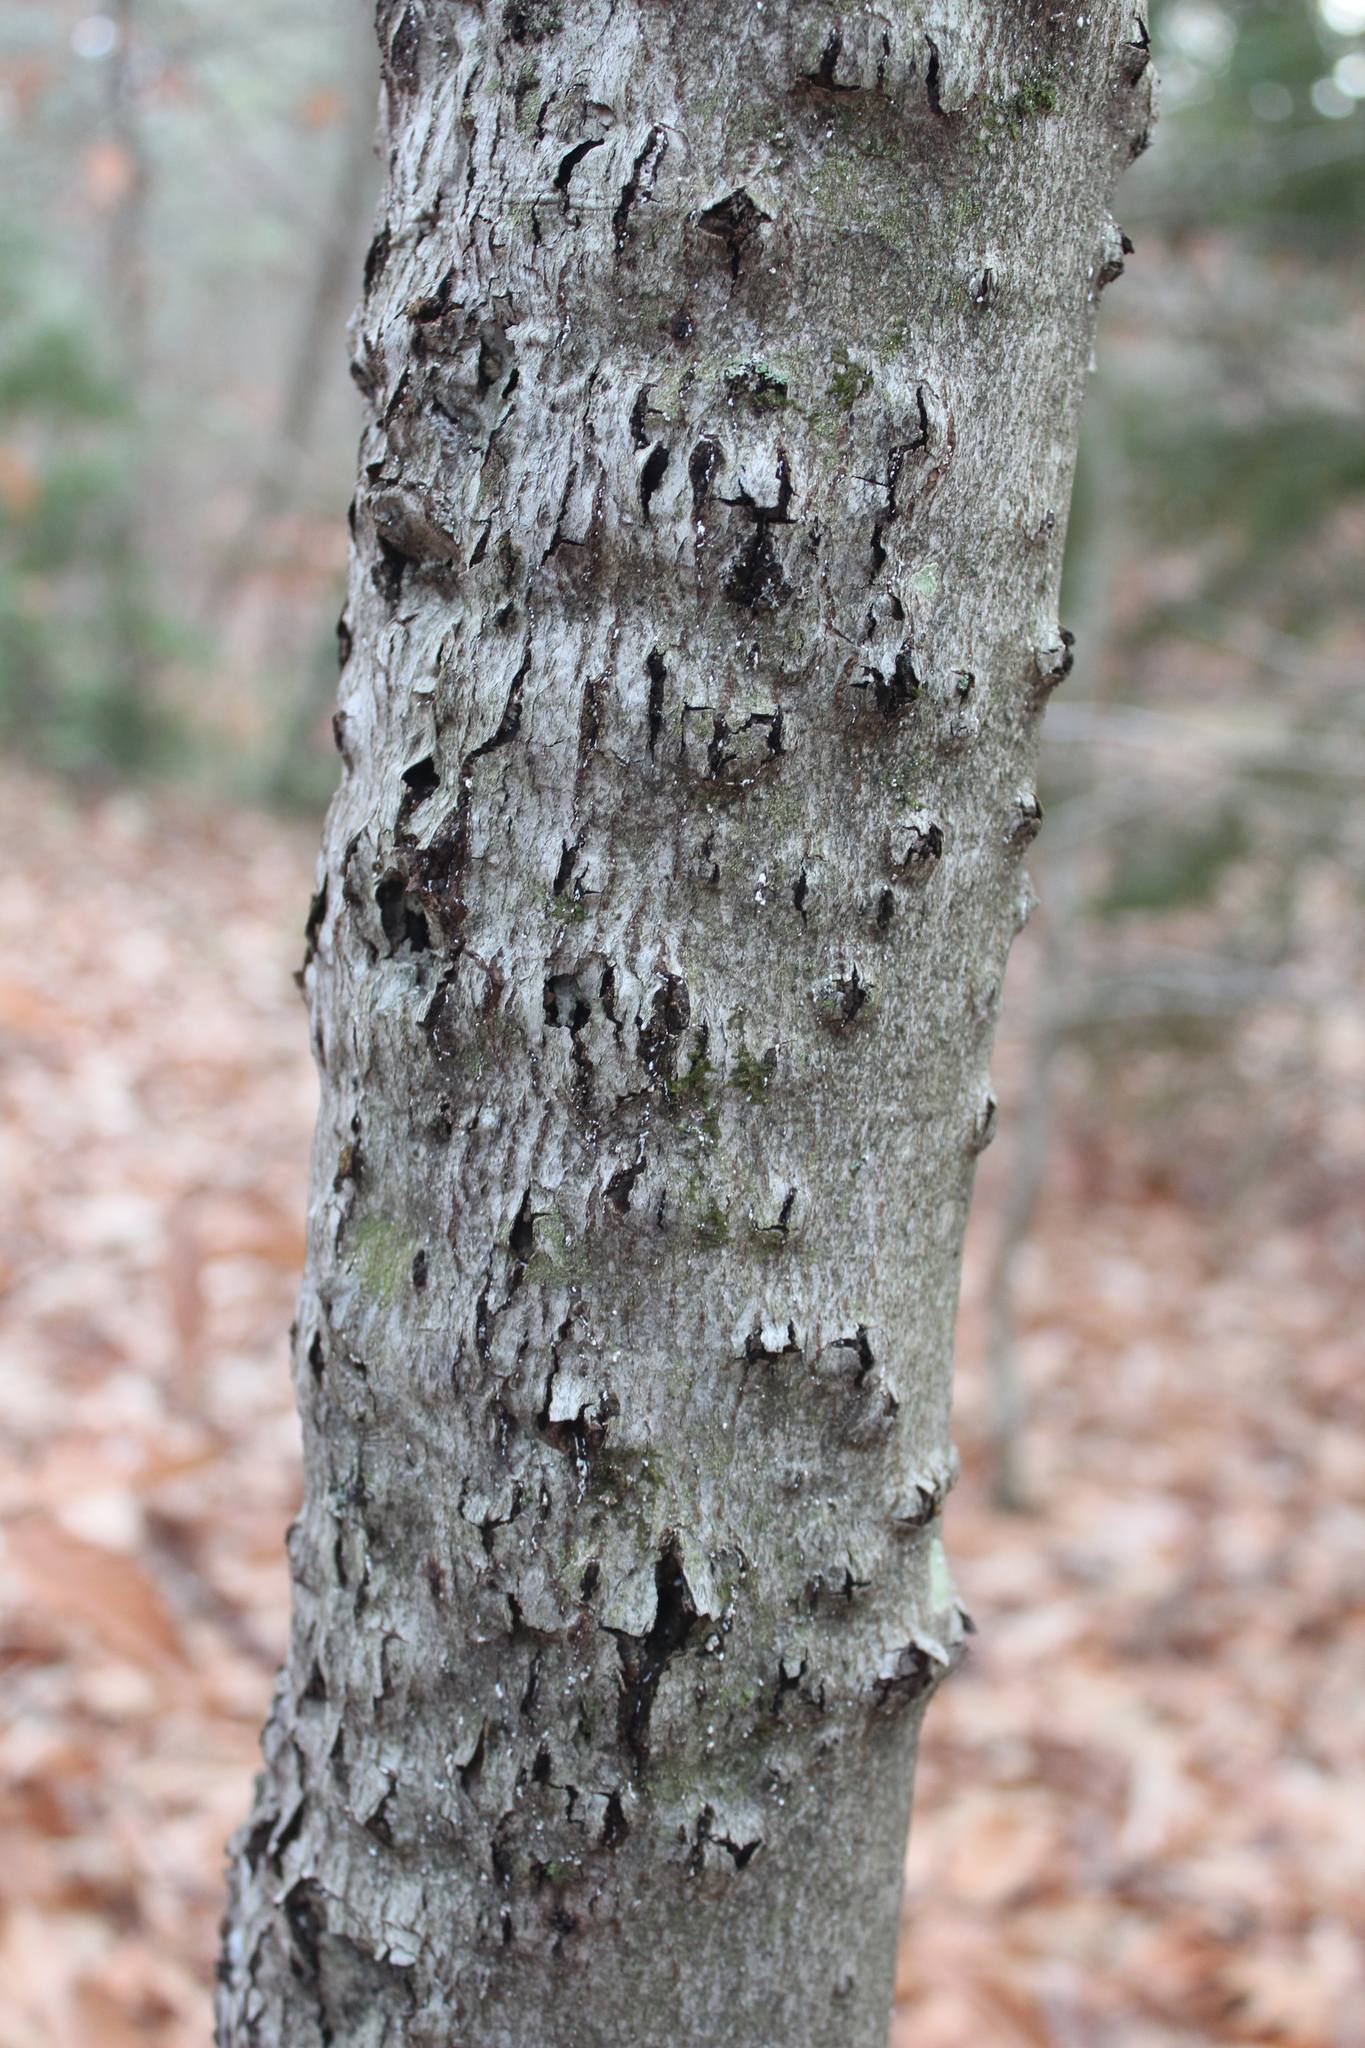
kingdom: Animalia
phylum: Arthropoda
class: Insecta
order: Hemiptera
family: Eriococcidae
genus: Cryptococcus
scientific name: Cryptococcus fagisuga
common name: Beech scale
